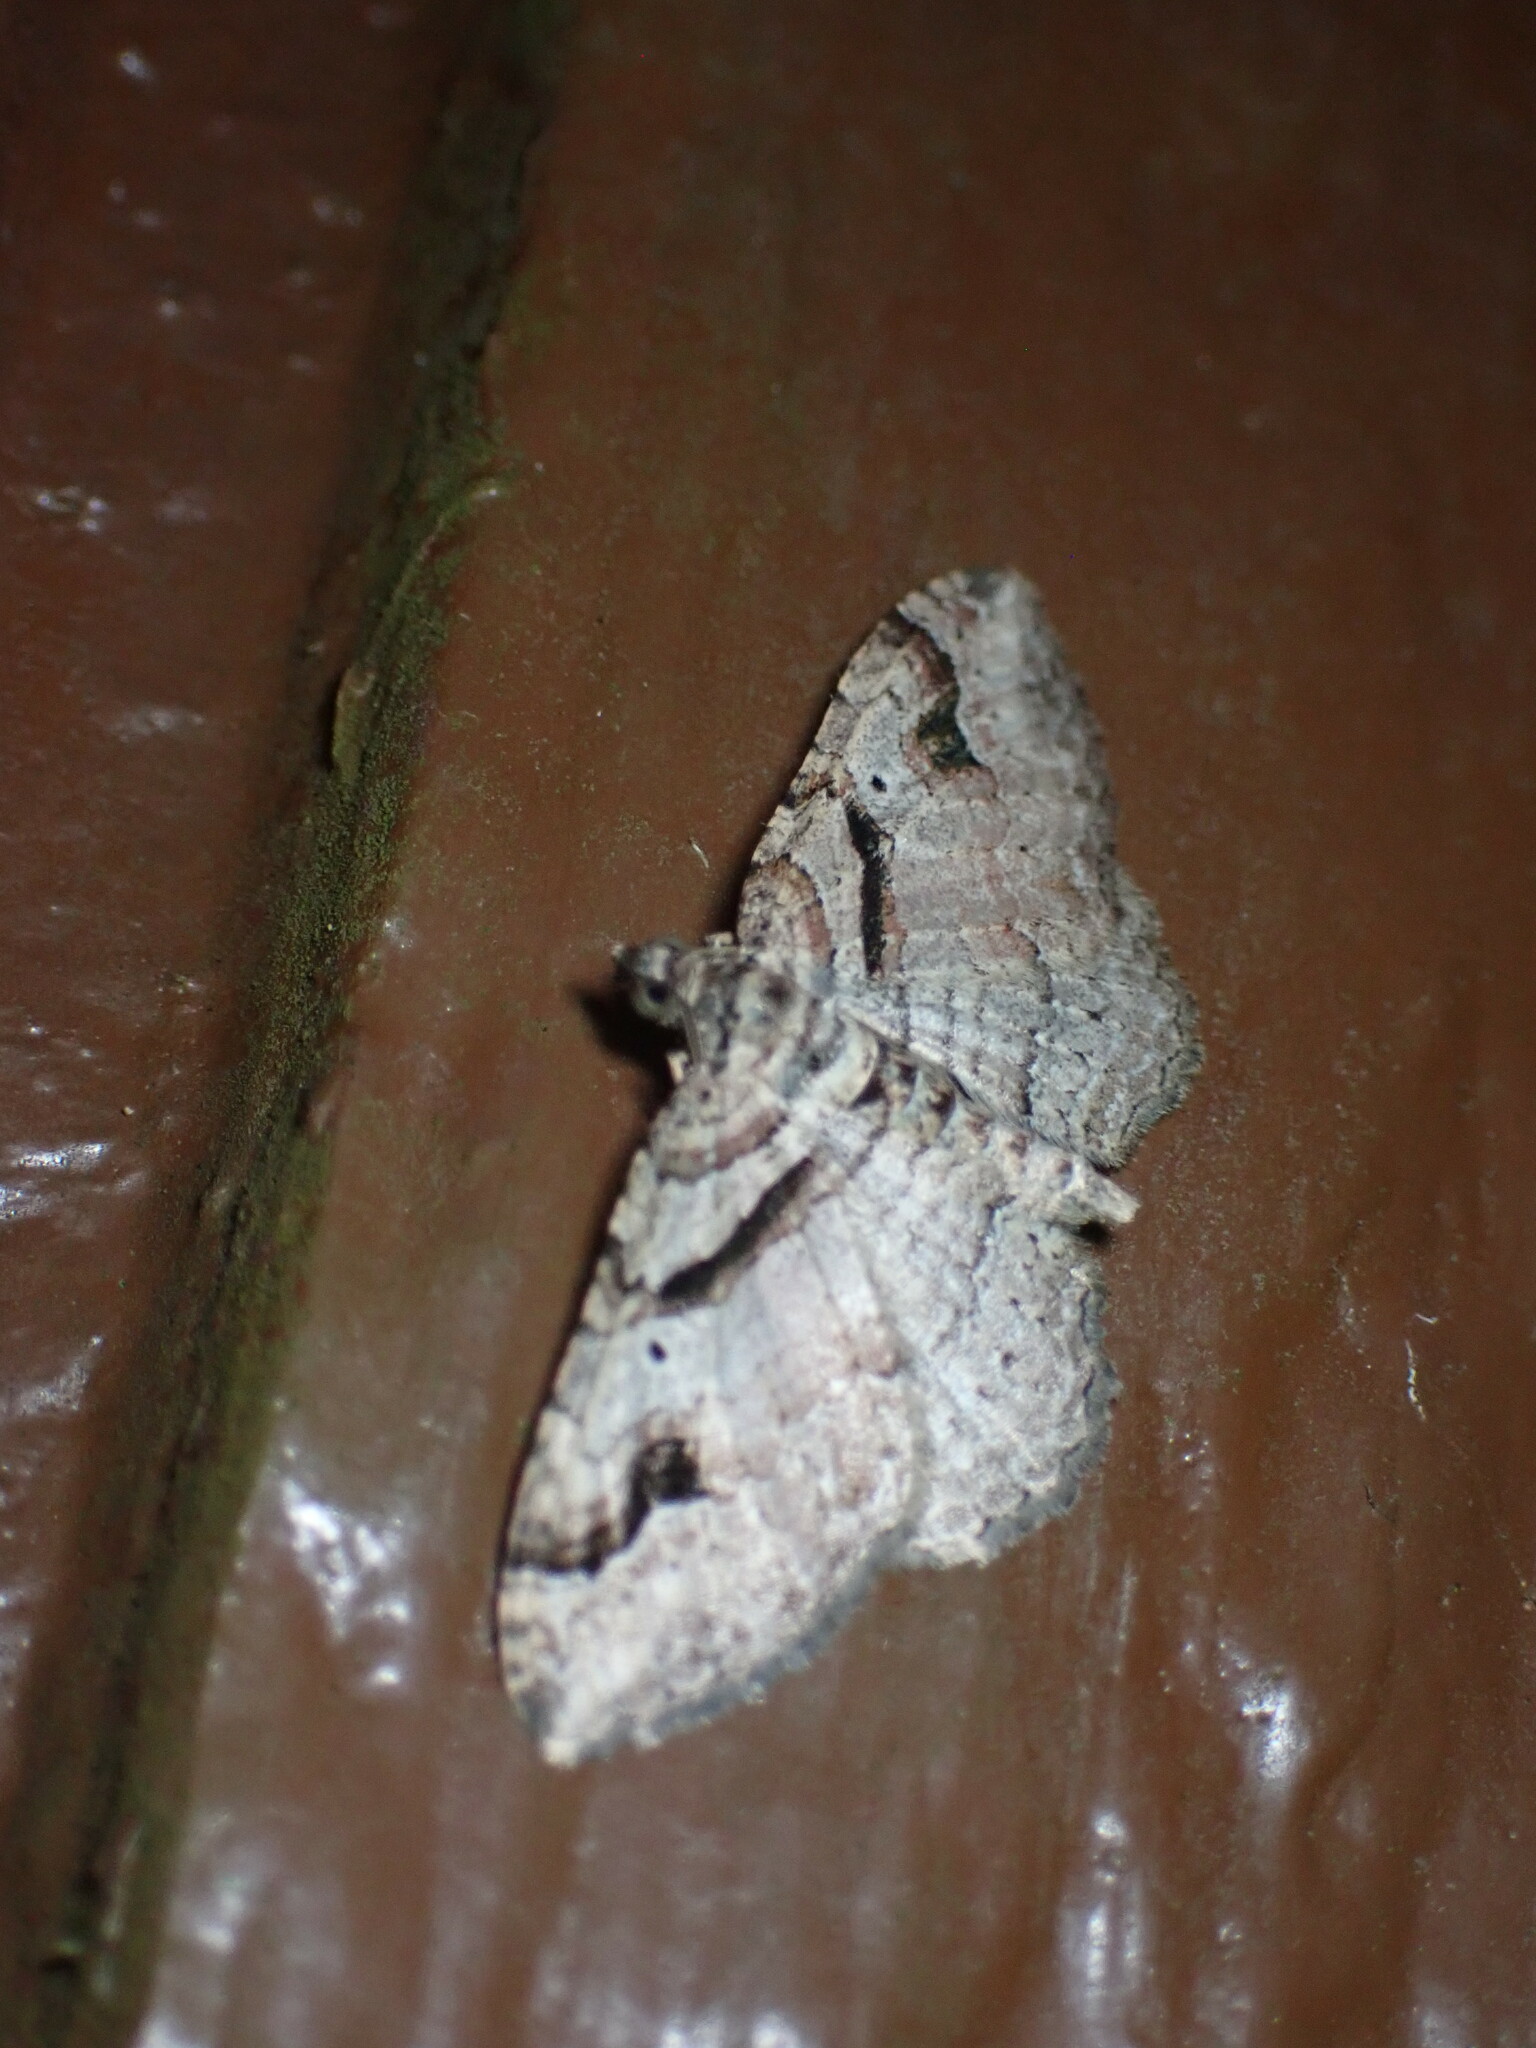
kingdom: Animalia
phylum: Arthropoda
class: Insecta
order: Lepidoptera
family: Geometridae
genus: Costaconvexa
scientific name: Costaconvexa centrostrigaria
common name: Bent-line carpet
